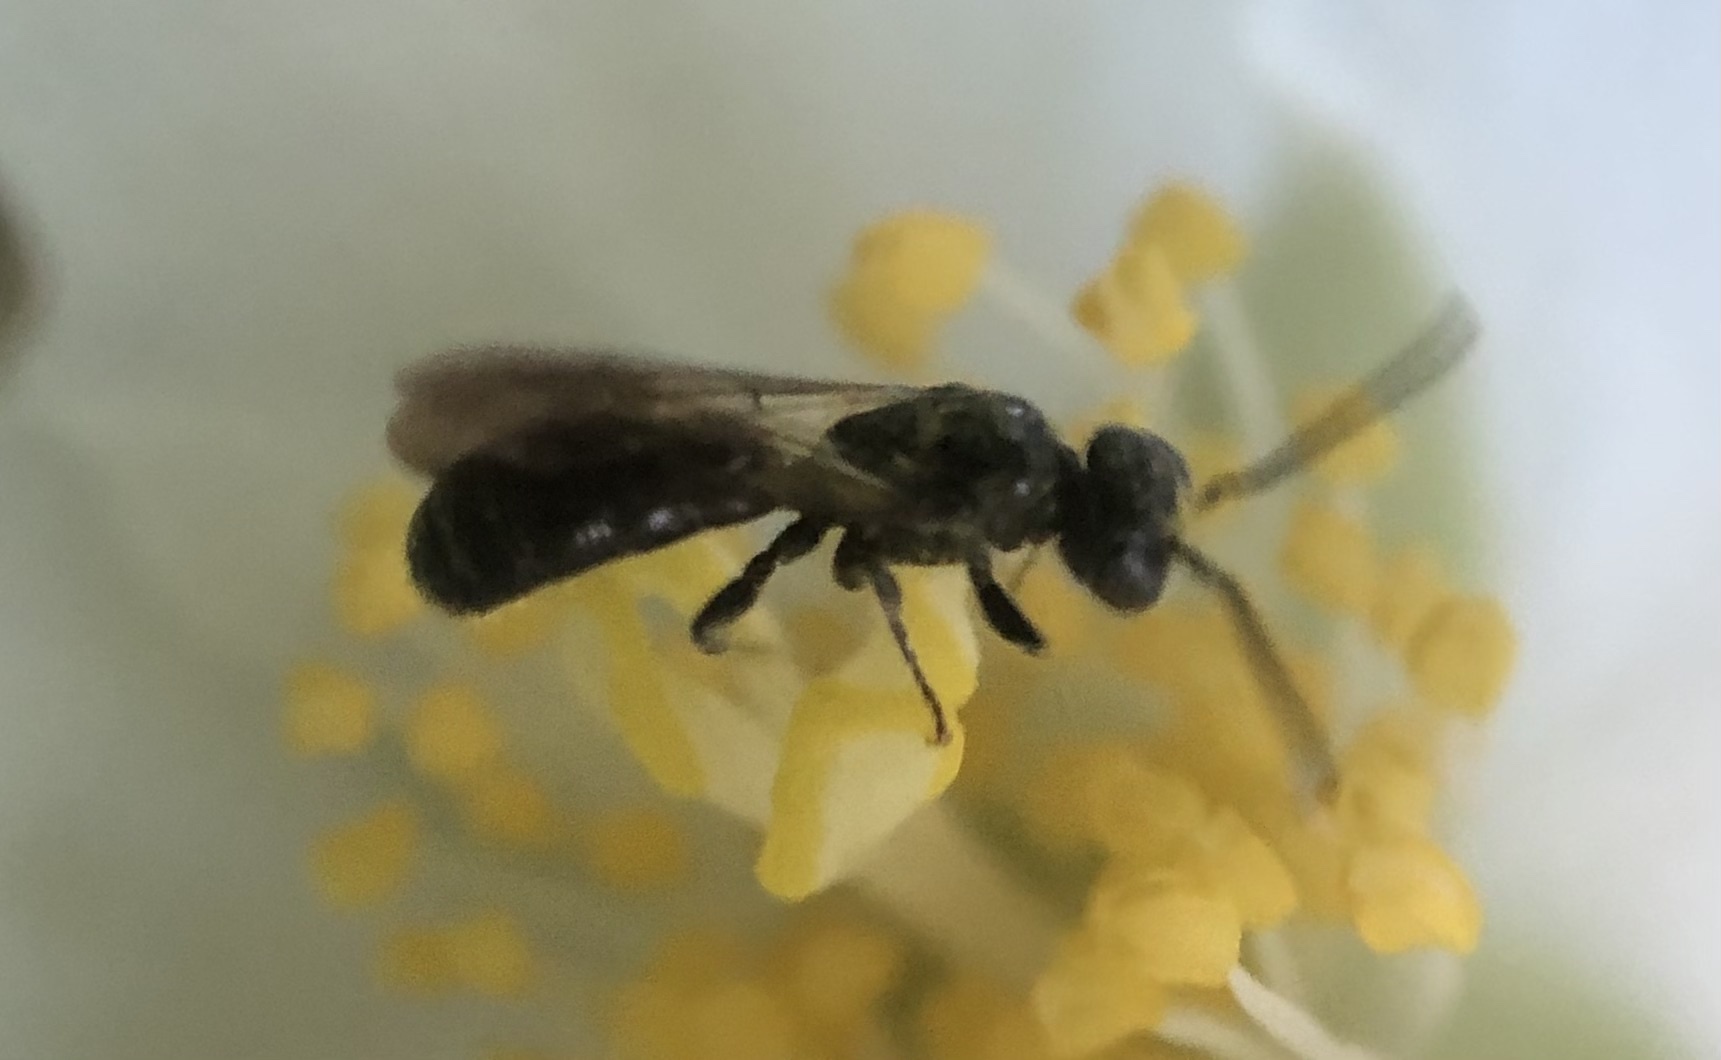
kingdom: Animalia
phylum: Arthropoda
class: Insecta
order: Hymenoptera
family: Megachilidae
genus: Chelostoma
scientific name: Chelostoma philadelphi
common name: Mock-orange scissor bee
